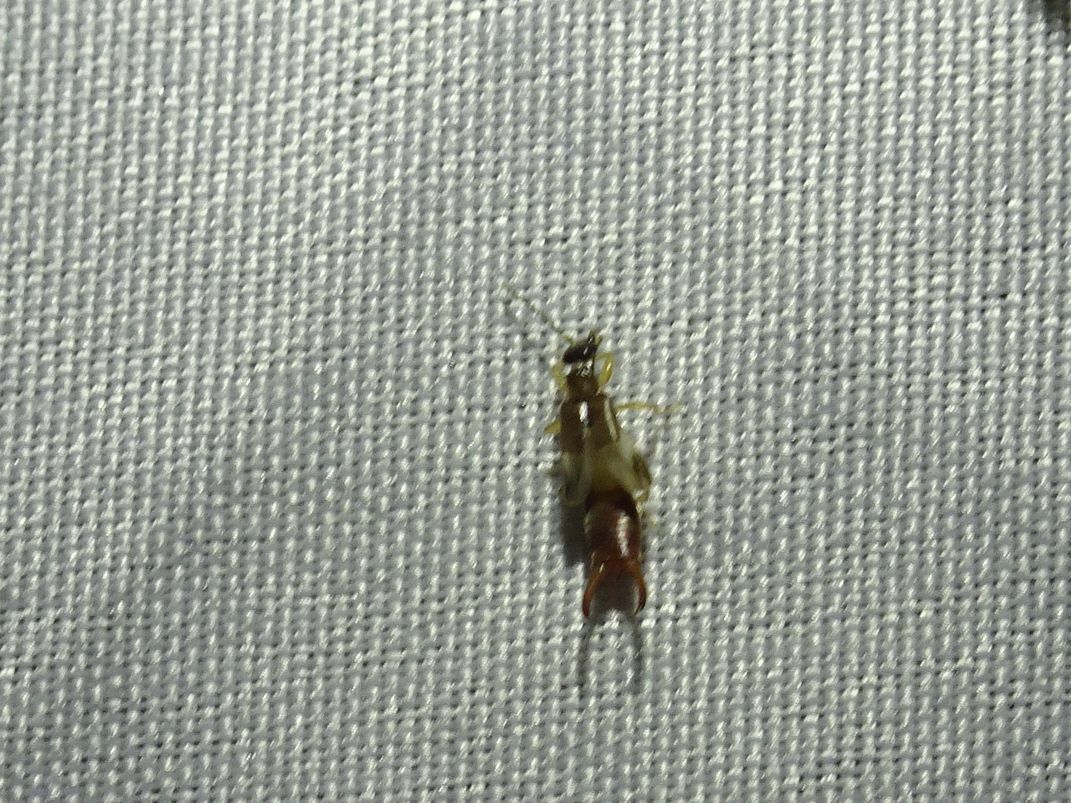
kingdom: Animalia
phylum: Arthropoda
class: Insecta
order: Dermaptera
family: Spongiphoridae
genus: Labia
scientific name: Labia minor
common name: Lesser earwig
